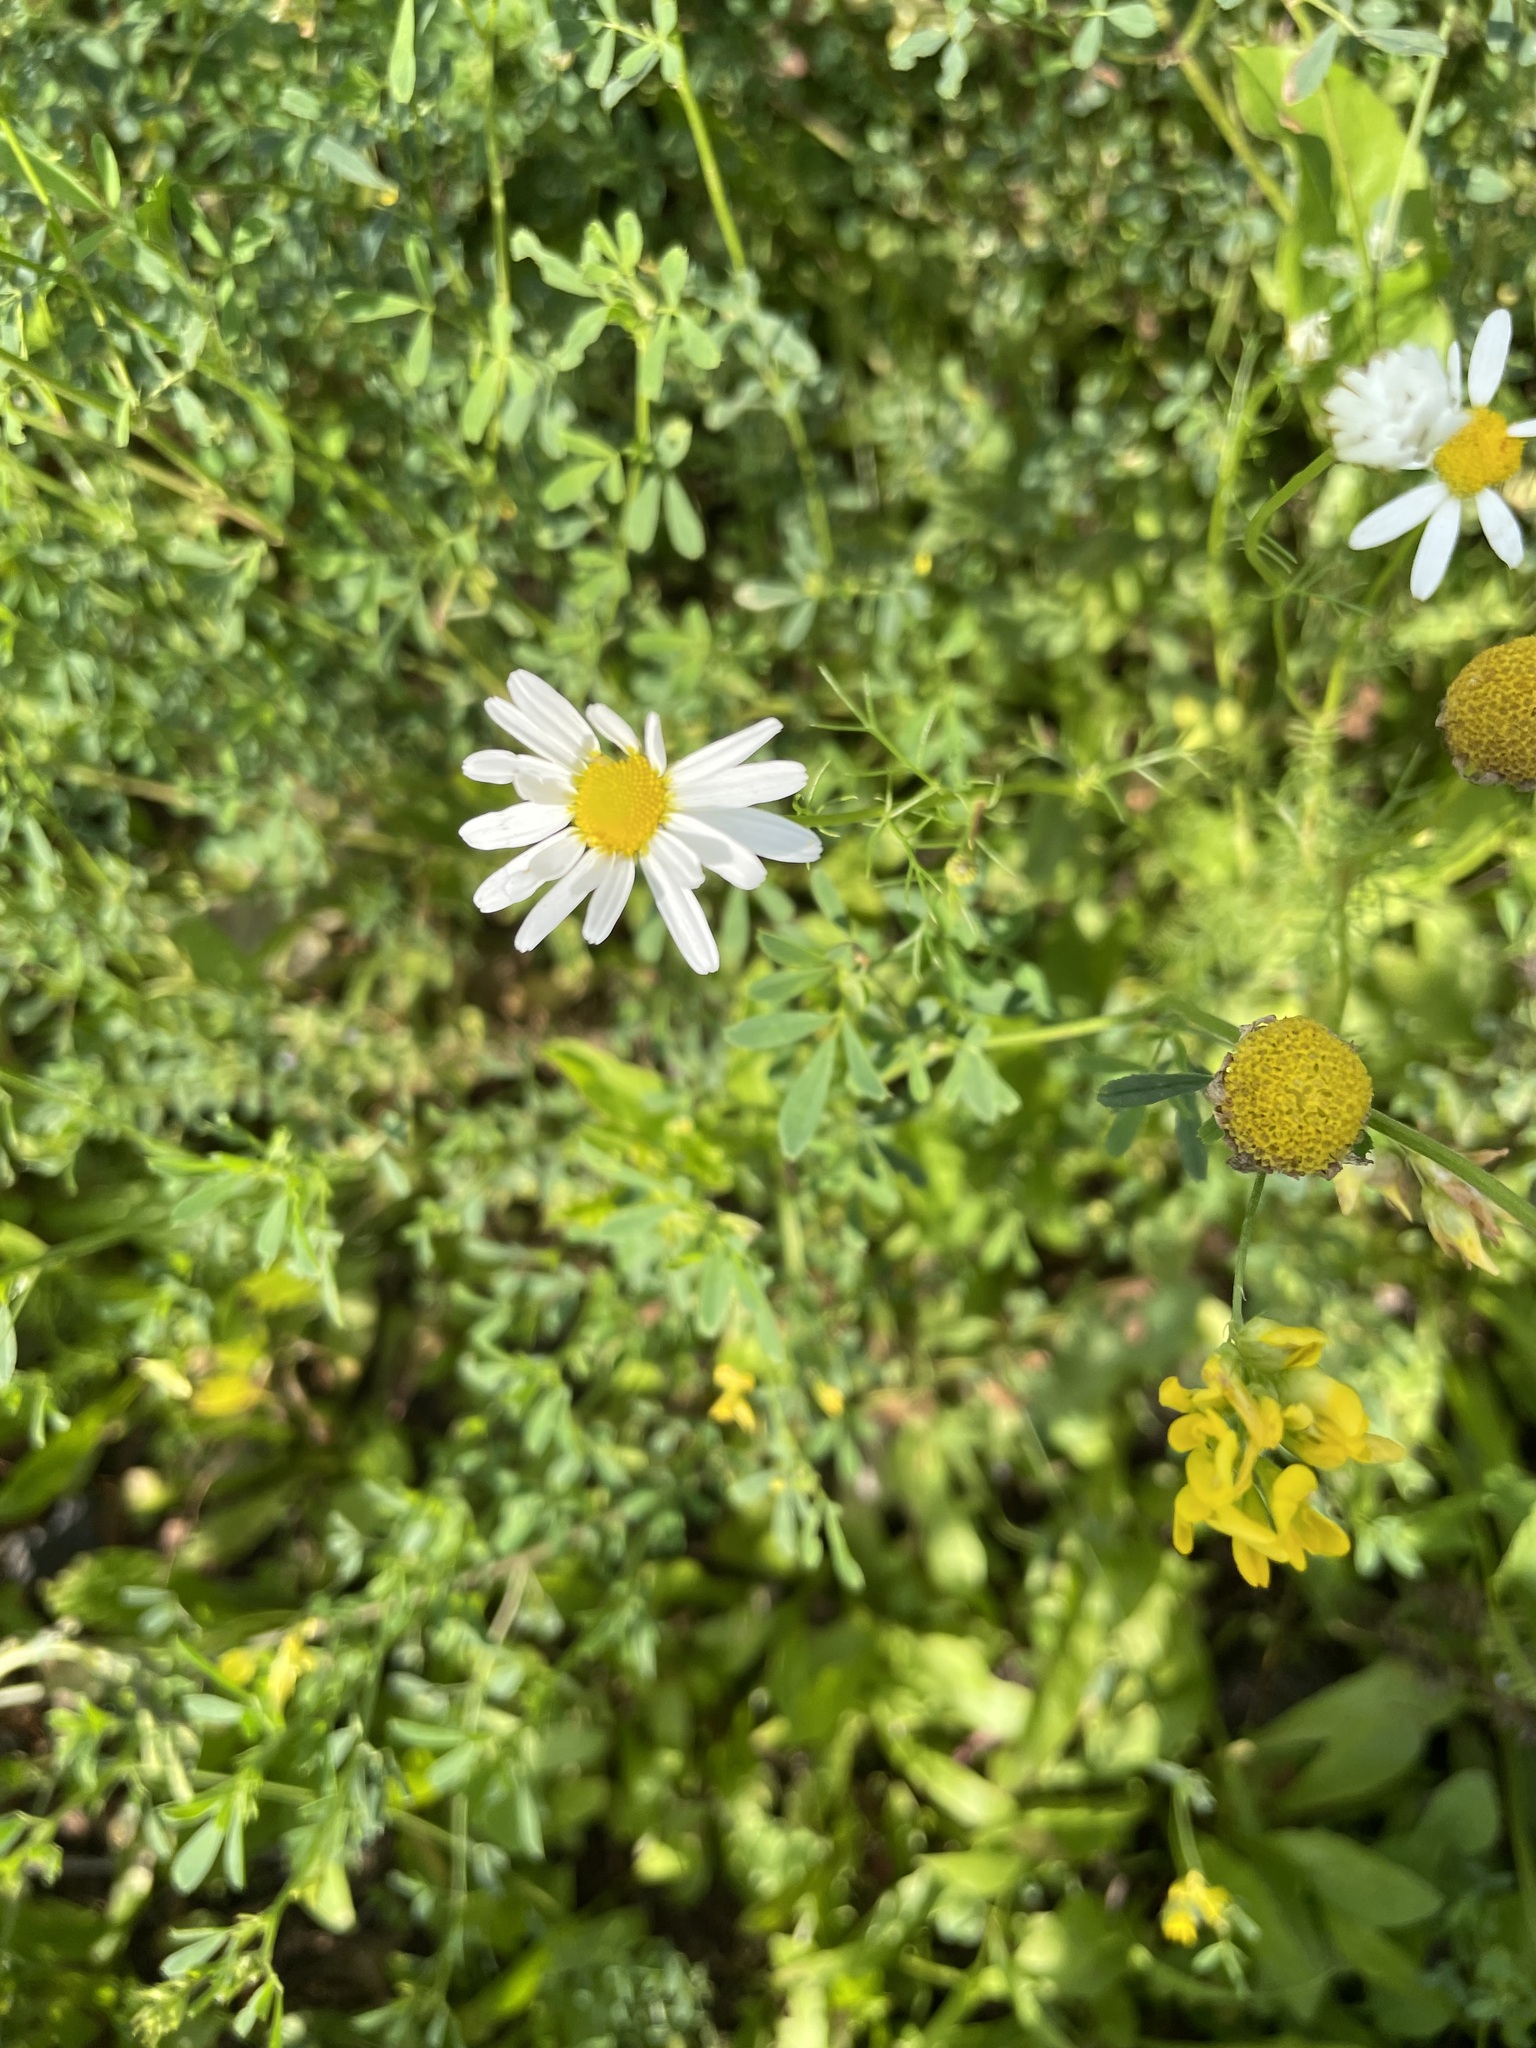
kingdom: Plantae
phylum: Tracheophyta
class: Magnoliopsida
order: Asterales
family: Asteraceae
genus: Tripleurospermum
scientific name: Tripleurospermum inodorum
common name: Scentless mayweed
